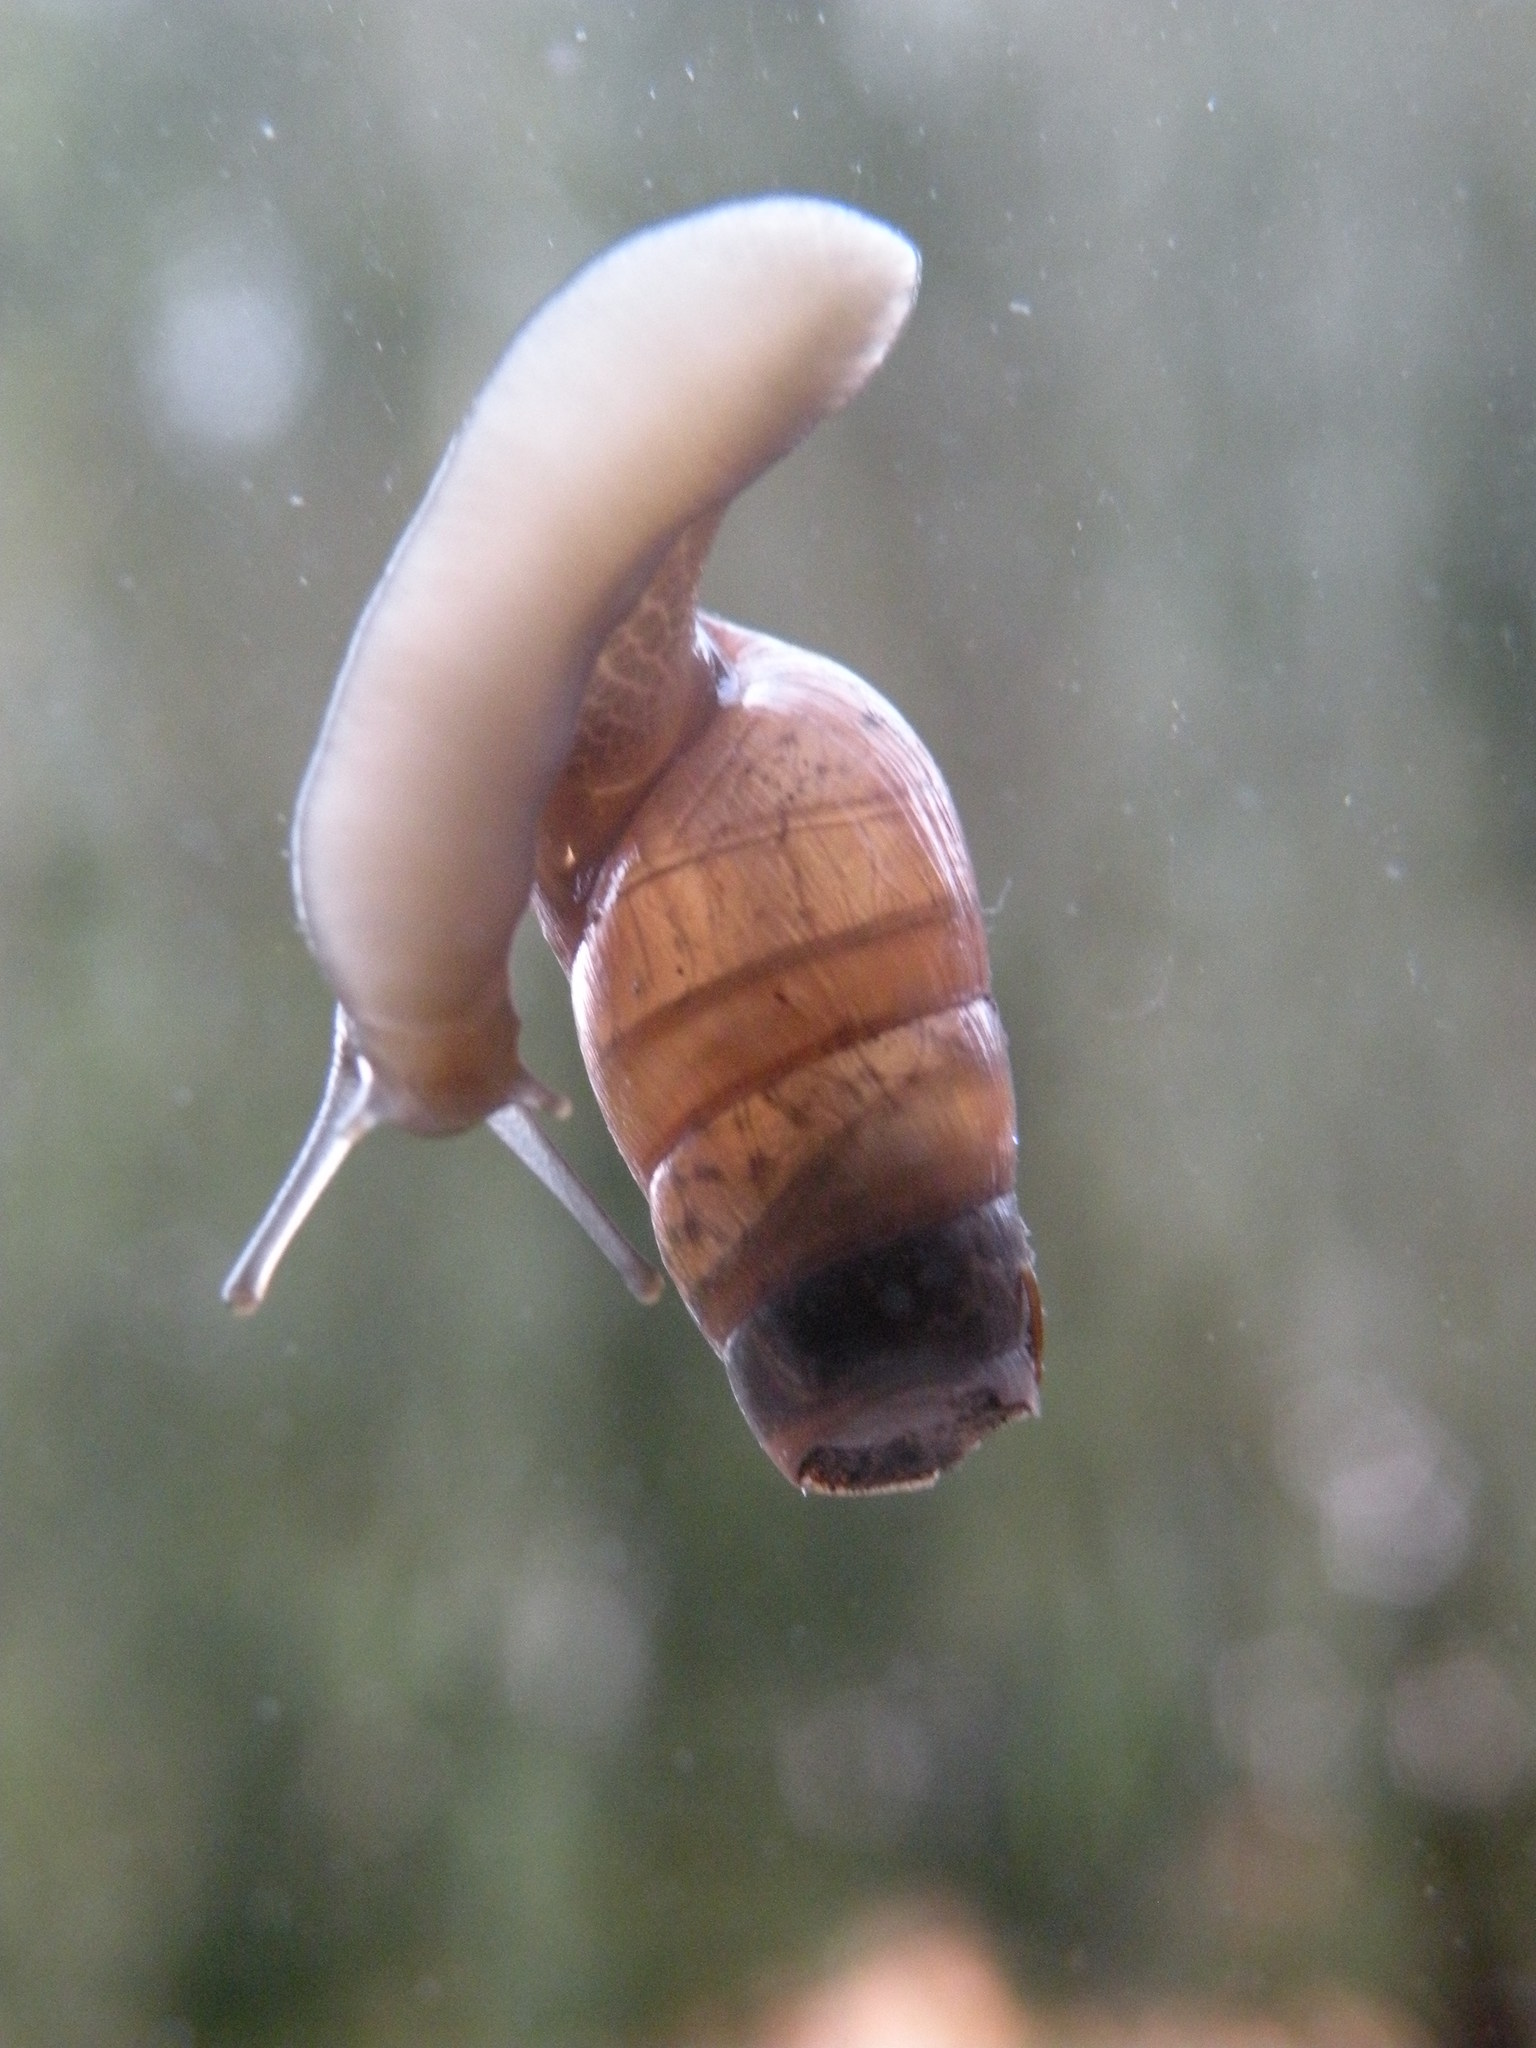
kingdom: Animalia
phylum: Mollusca
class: Gastropoda
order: Stylommatophora
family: Achatinidae
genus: Rumina
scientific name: Rumina decollata
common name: Decollate snail
